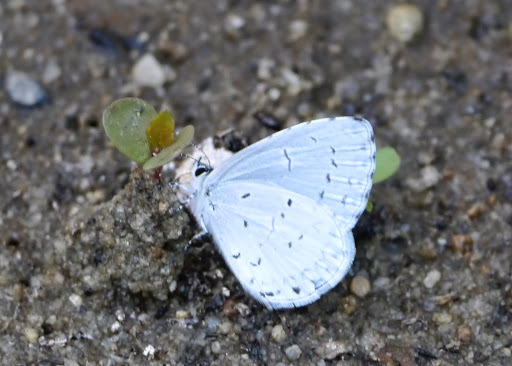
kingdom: Animalia
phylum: Arthropoda
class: Insecta
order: Lepidoptera
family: Lycaenidae
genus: Cyaniris
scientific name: Cyaniris neglecta
